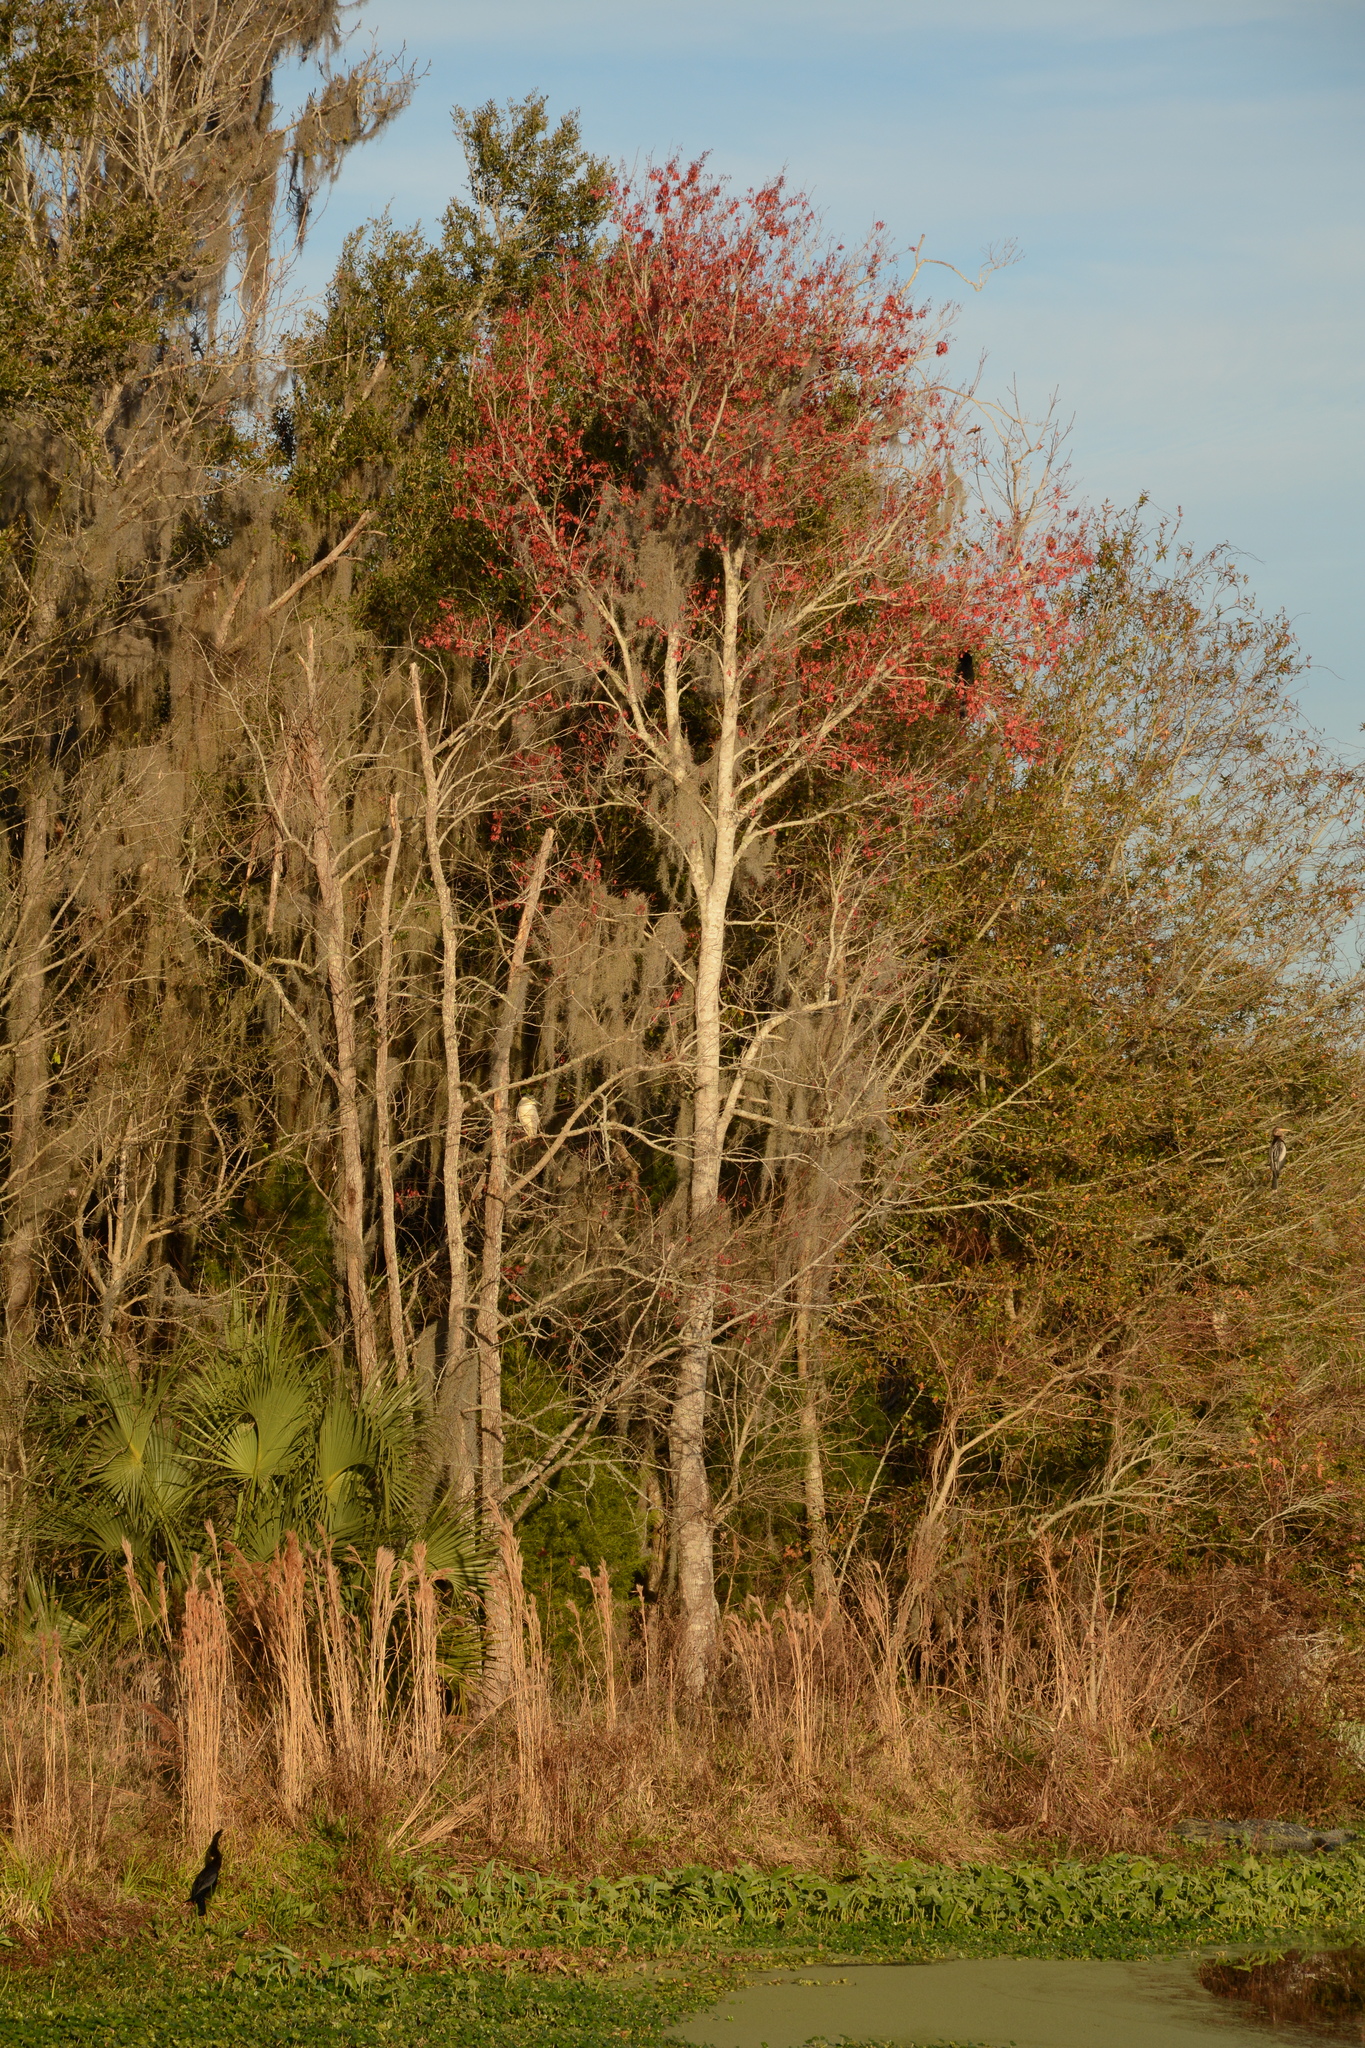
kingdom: Plantae
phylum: Tracheophyta
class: Magnoliopsida
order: Sapindales
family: Sapindaceae
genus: Acer
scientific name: Acer rubrum
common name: Red maple
